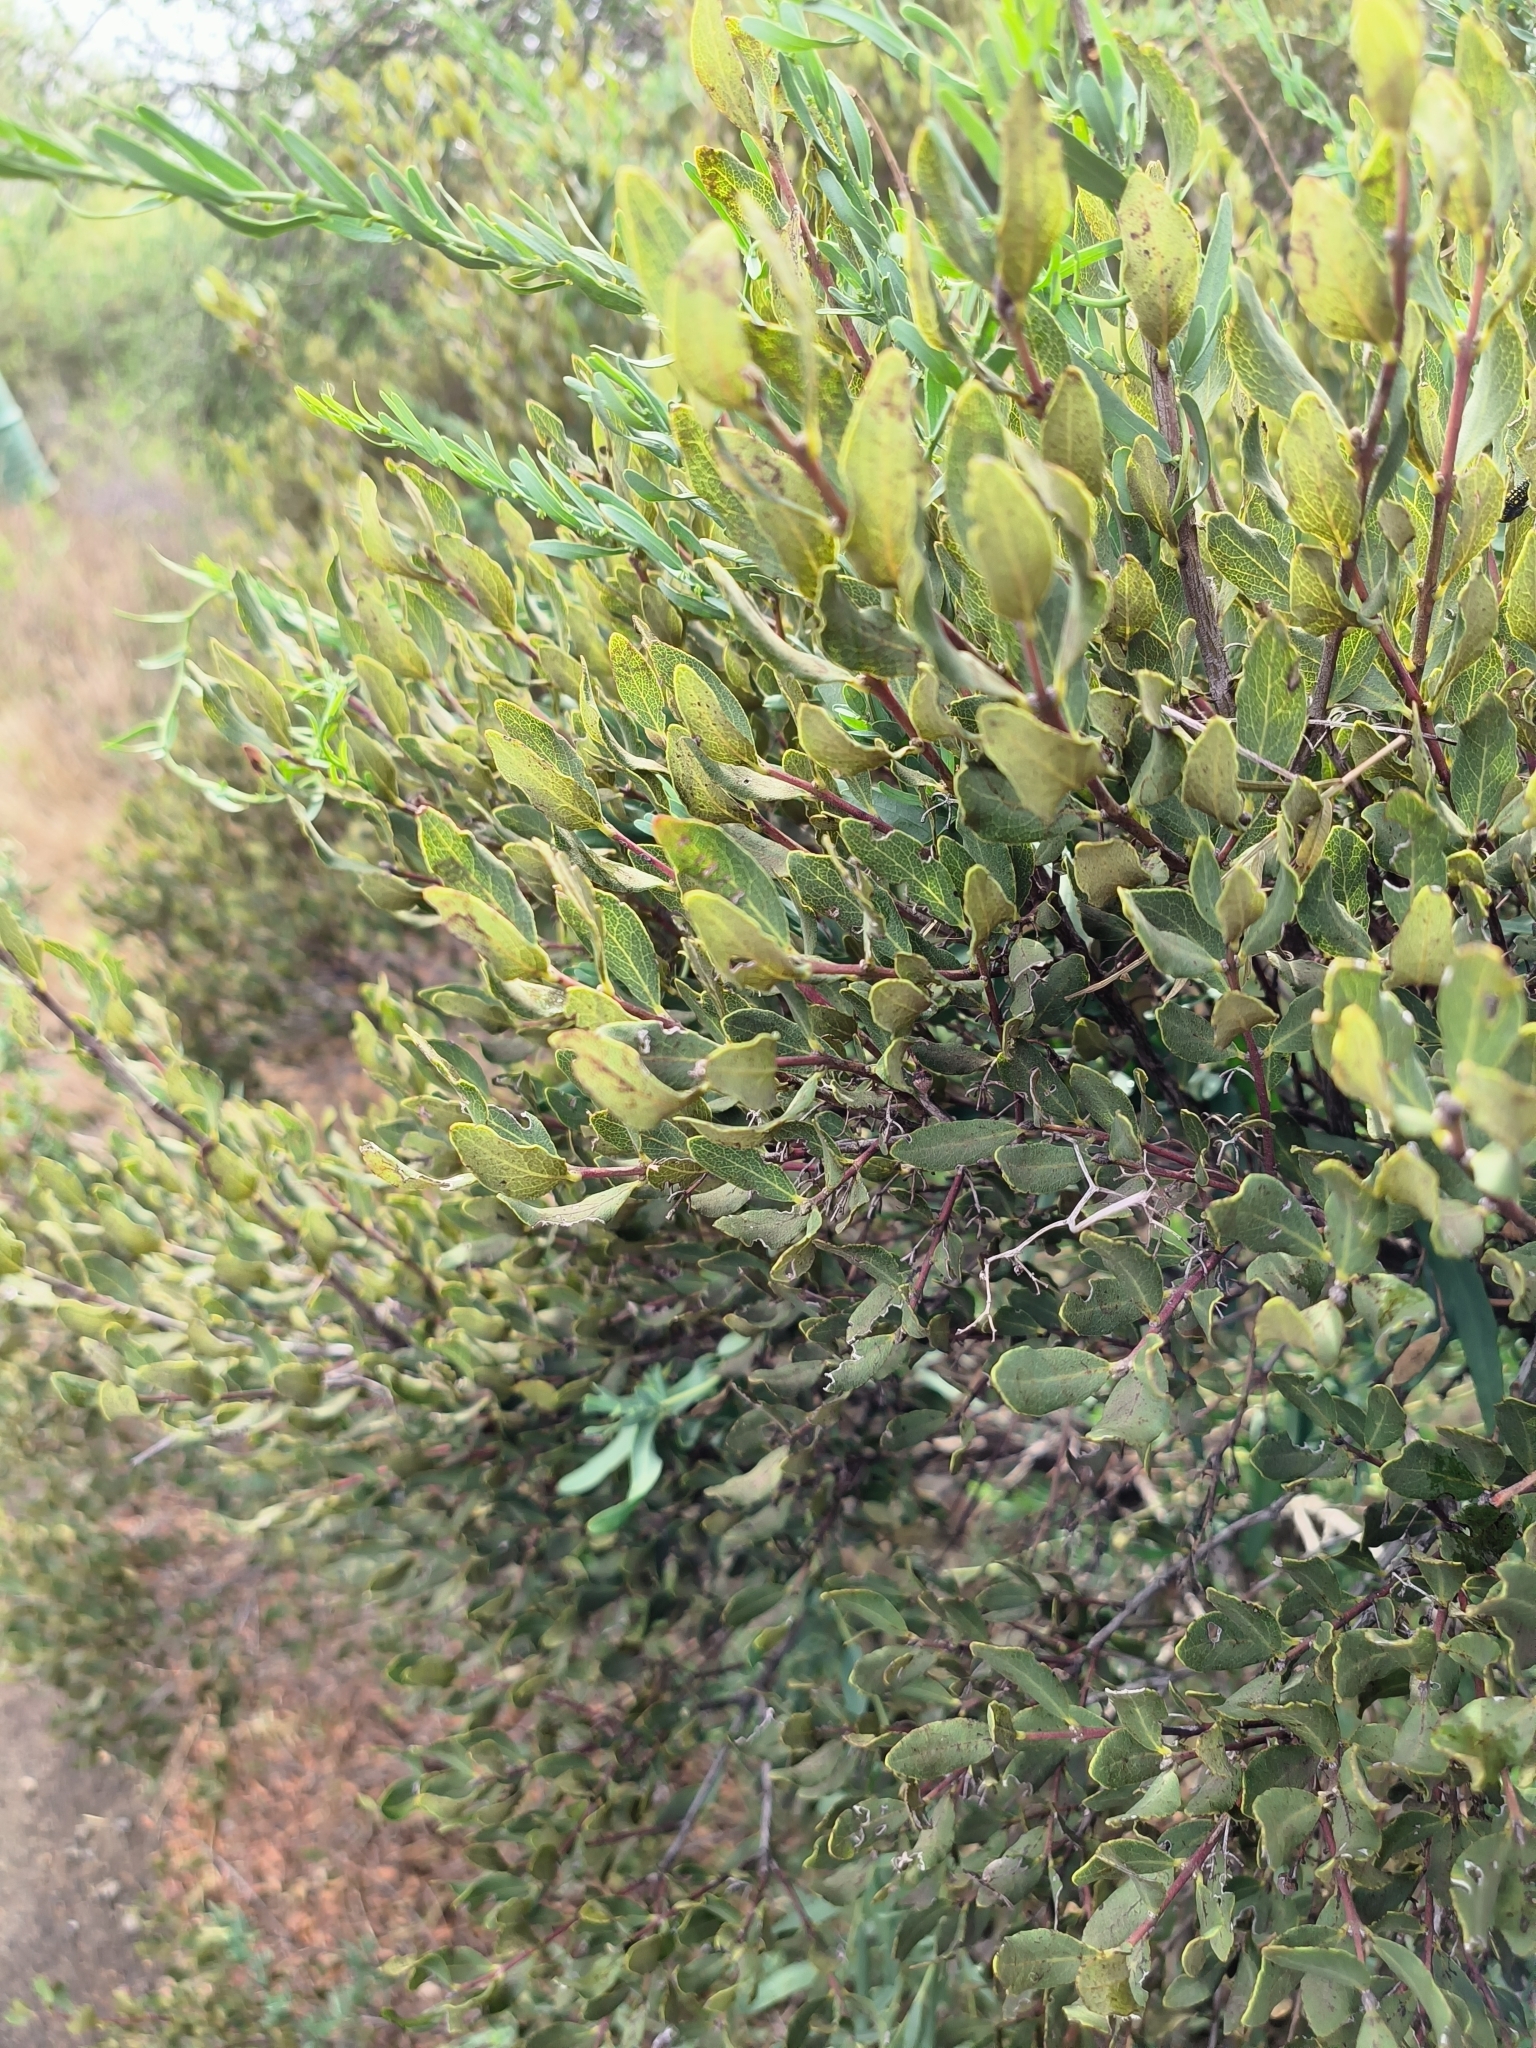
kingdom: Plantae
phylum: Tracheophyta
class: Magnoliopsida
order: Ericales
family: Ebenaceae
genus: Euclea
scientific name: Euclea crispa
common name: Blue guarri
